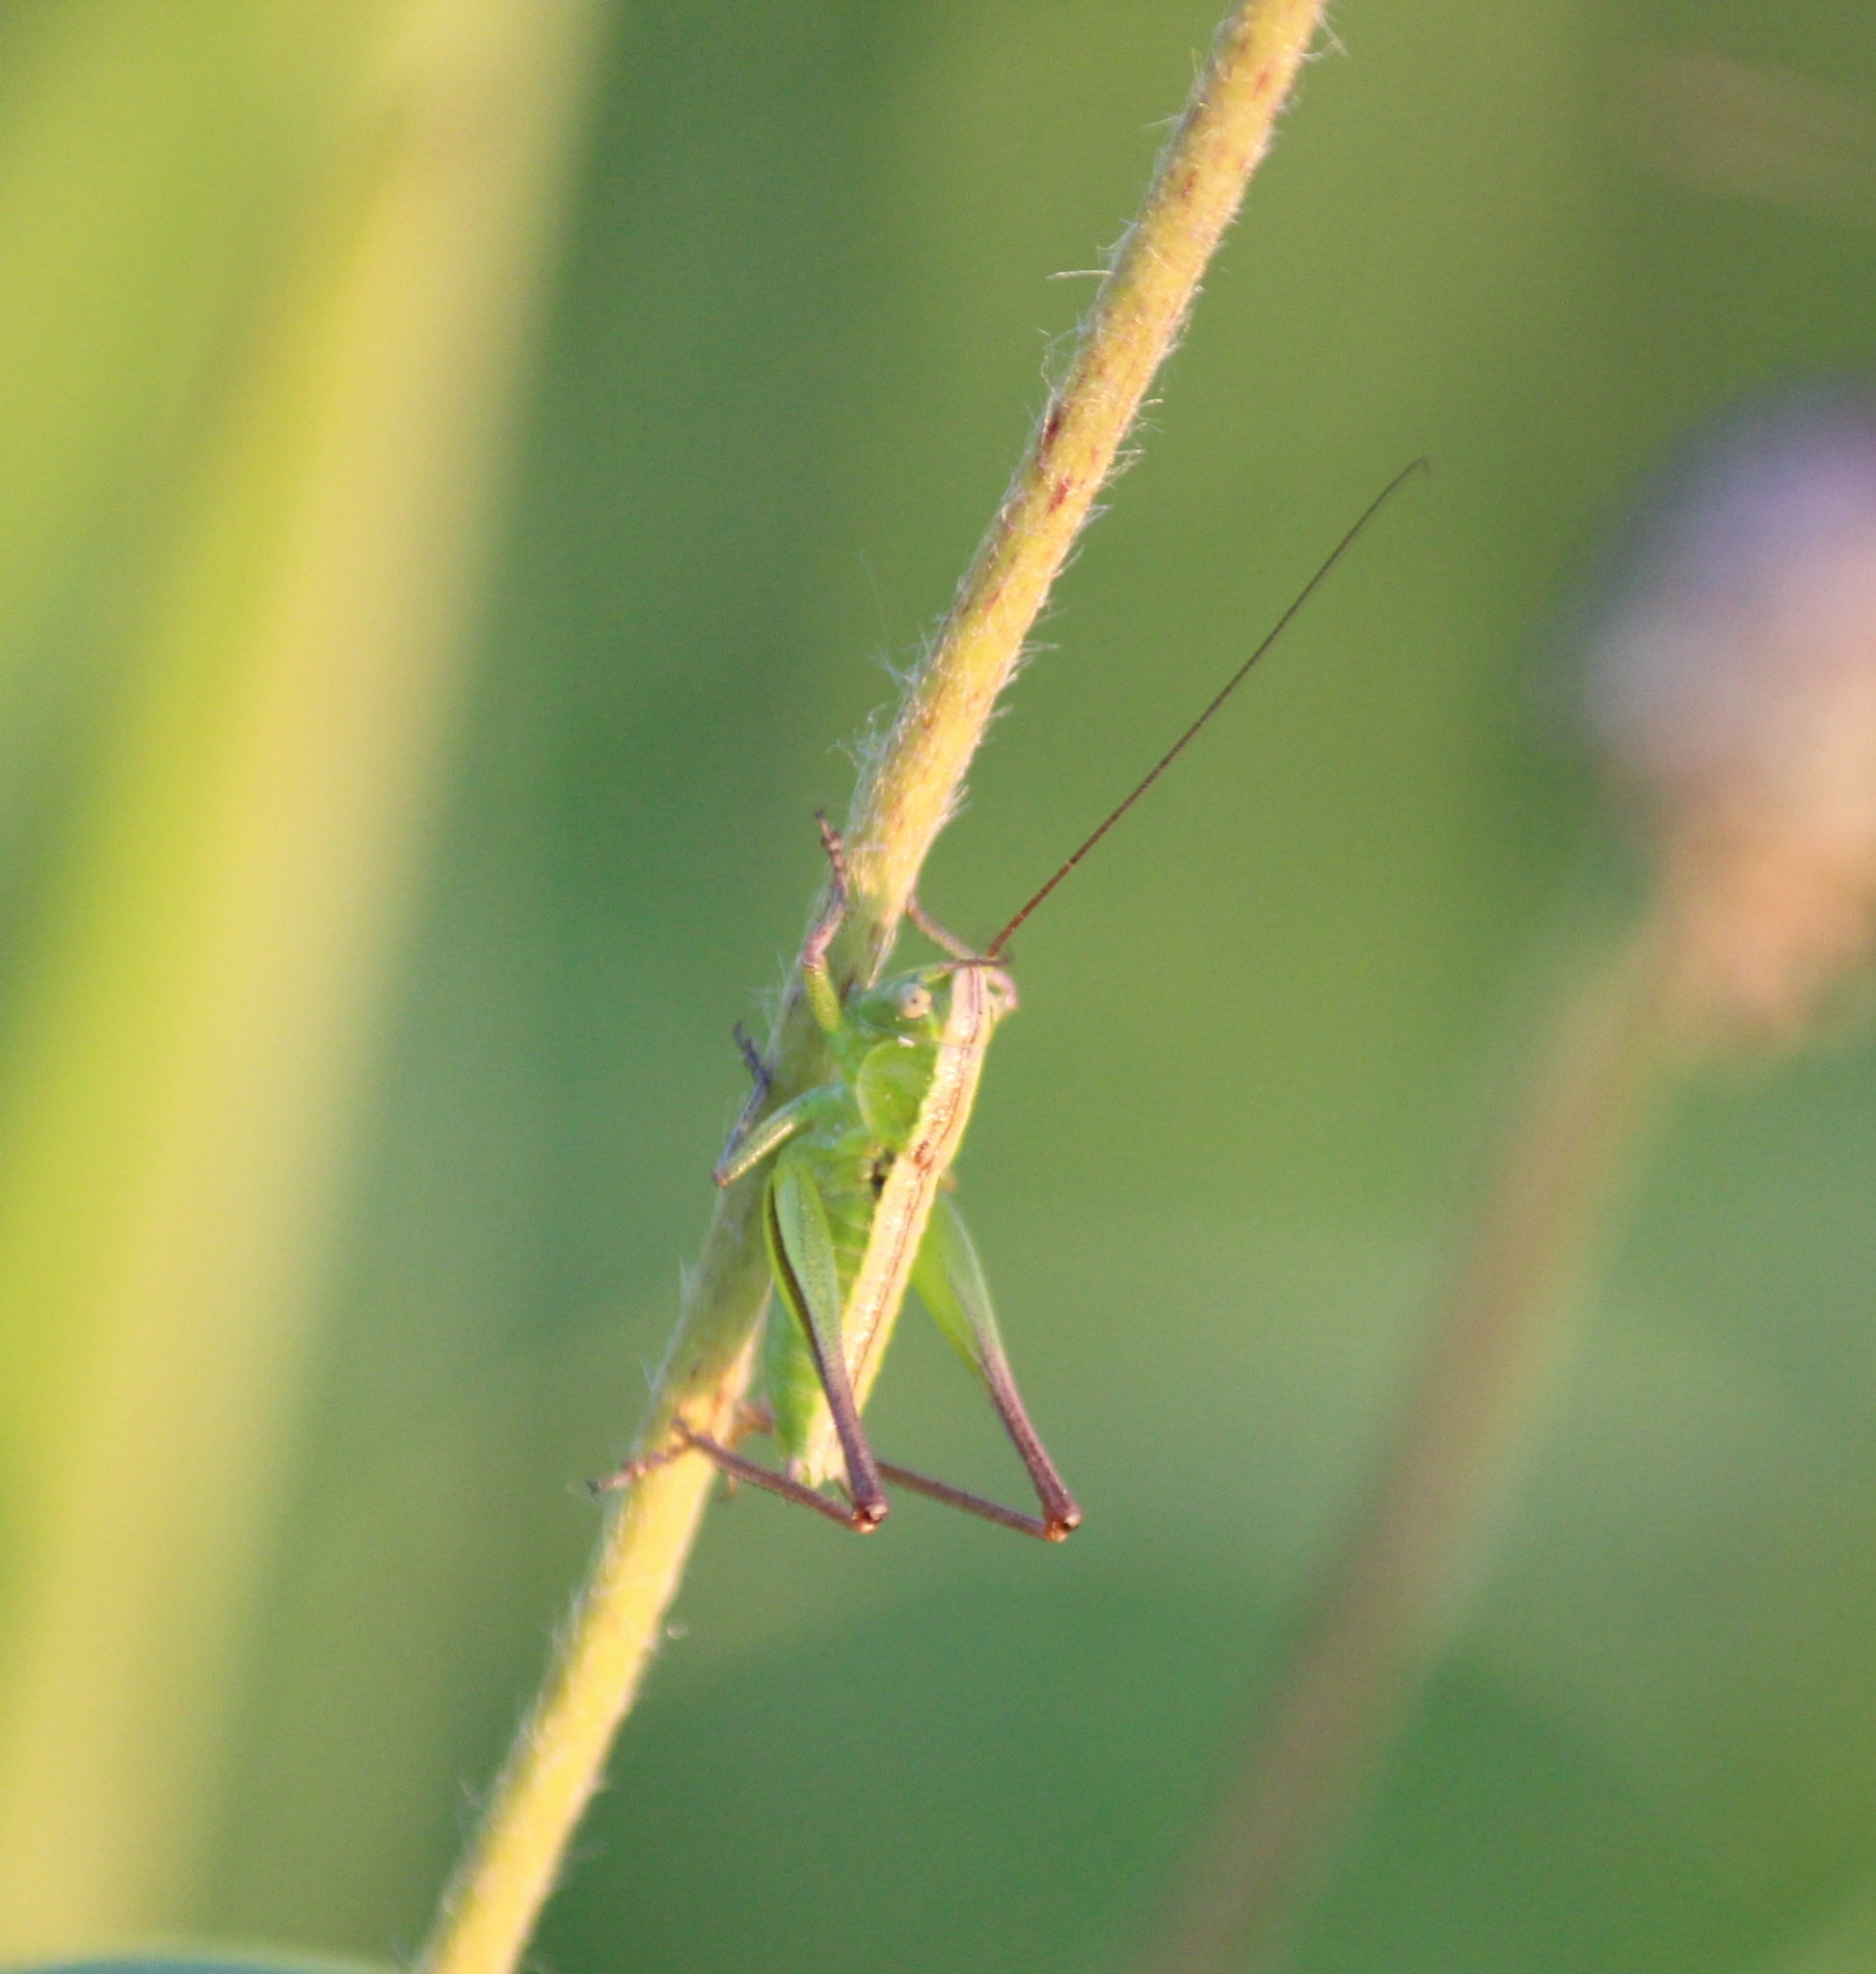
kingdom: Animalia
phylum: Arthropoda
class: Insecta
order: Orthoptera
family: Tettigoniidae
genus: Bicolorana
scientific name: Bicolorana bicolor
